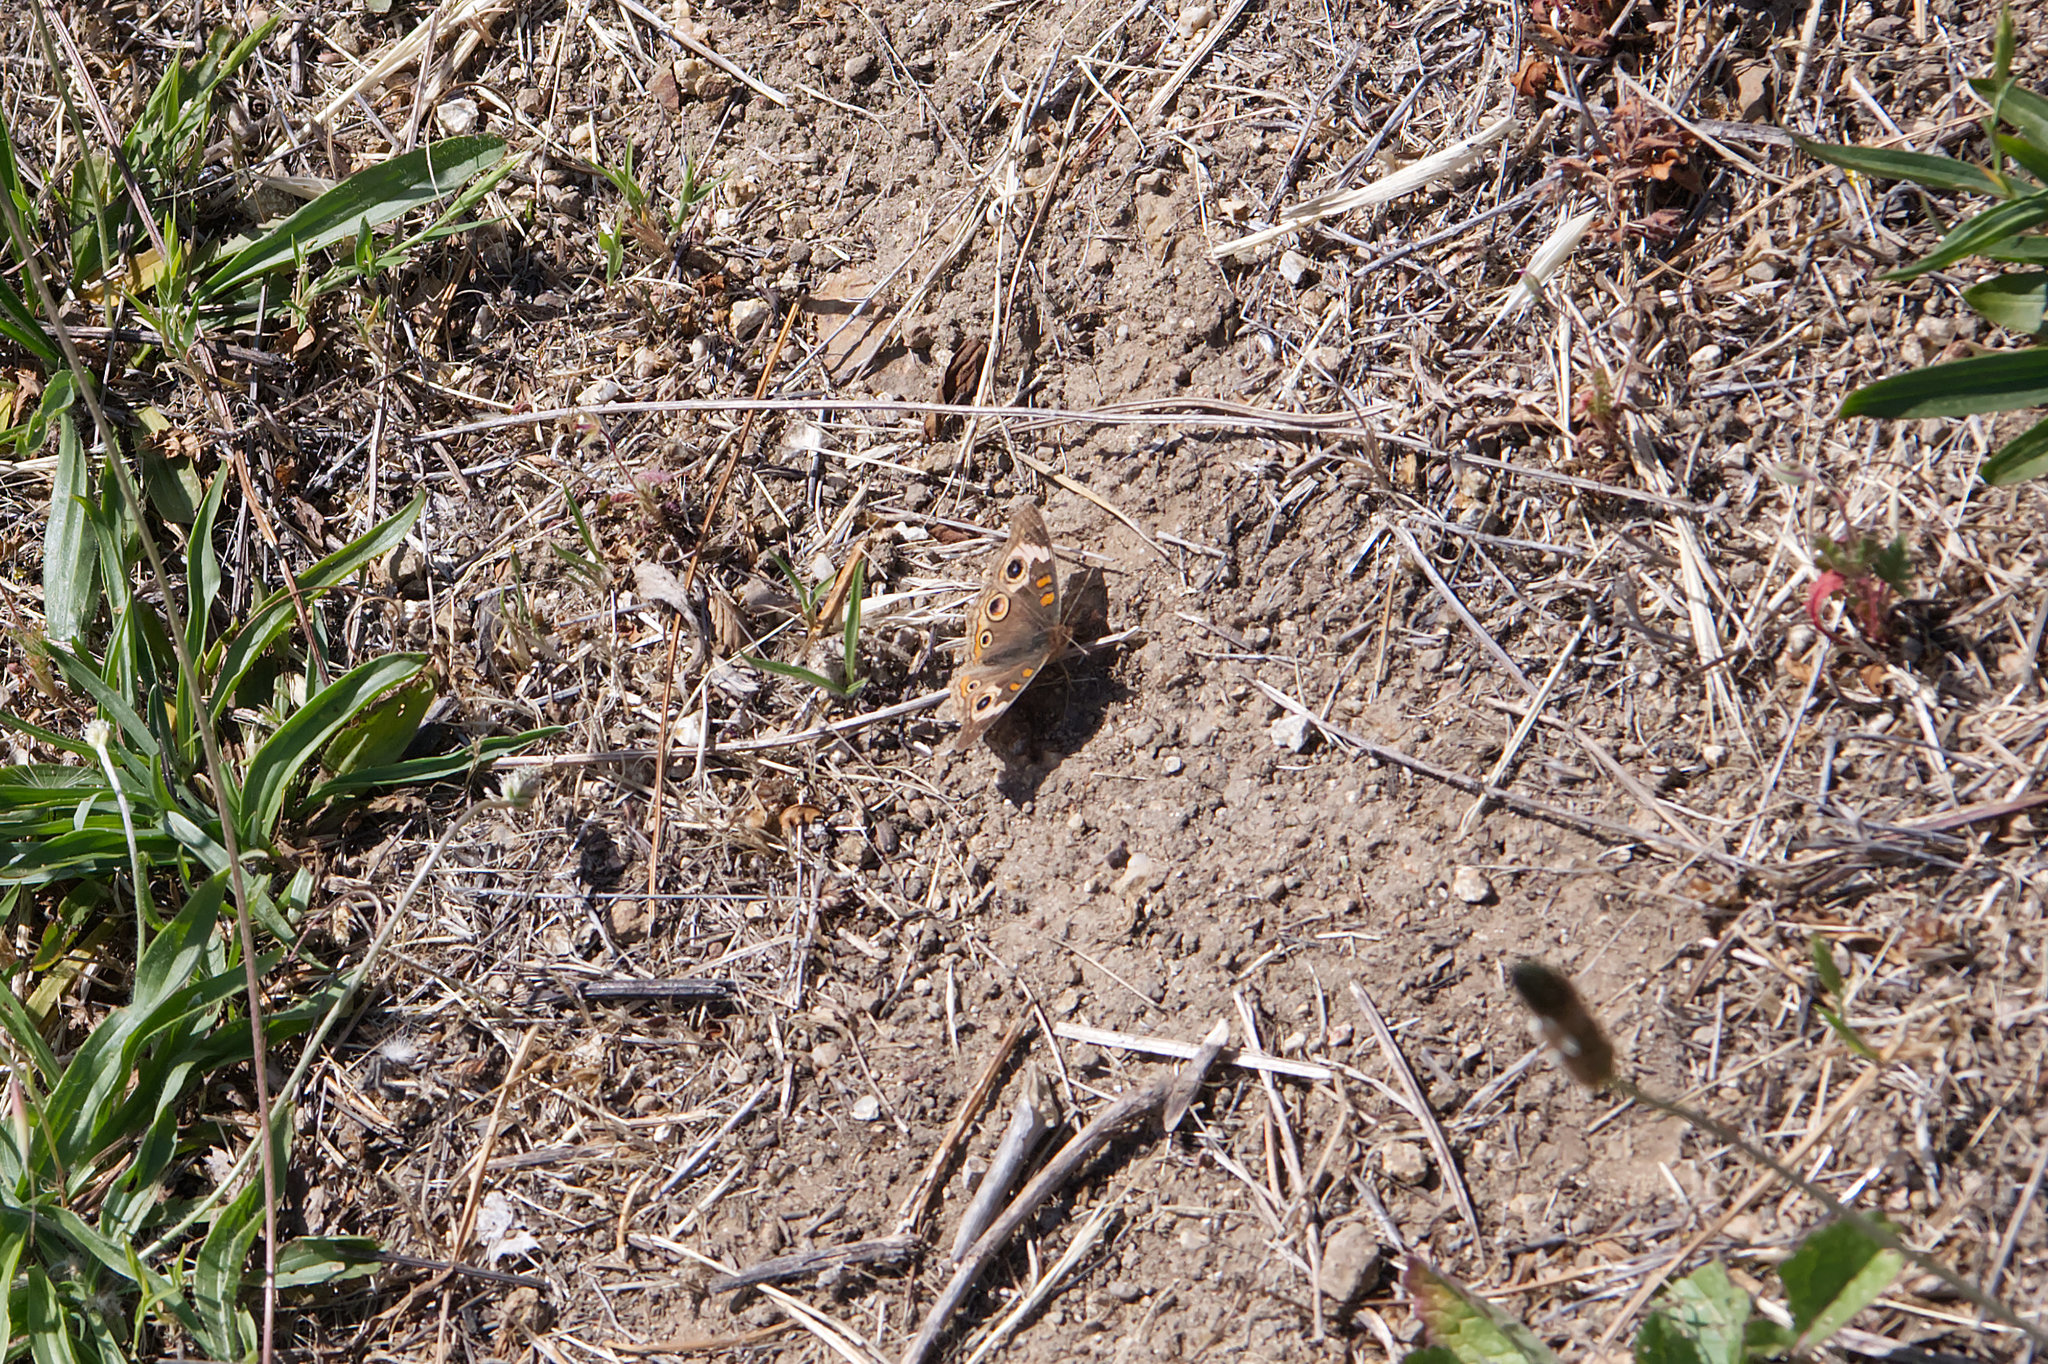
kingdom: Animalia
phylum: Arthropoda
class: Insecta
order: Lepidoptera
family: Nymphalidae
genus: Junonia
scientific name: Junonia grisea
